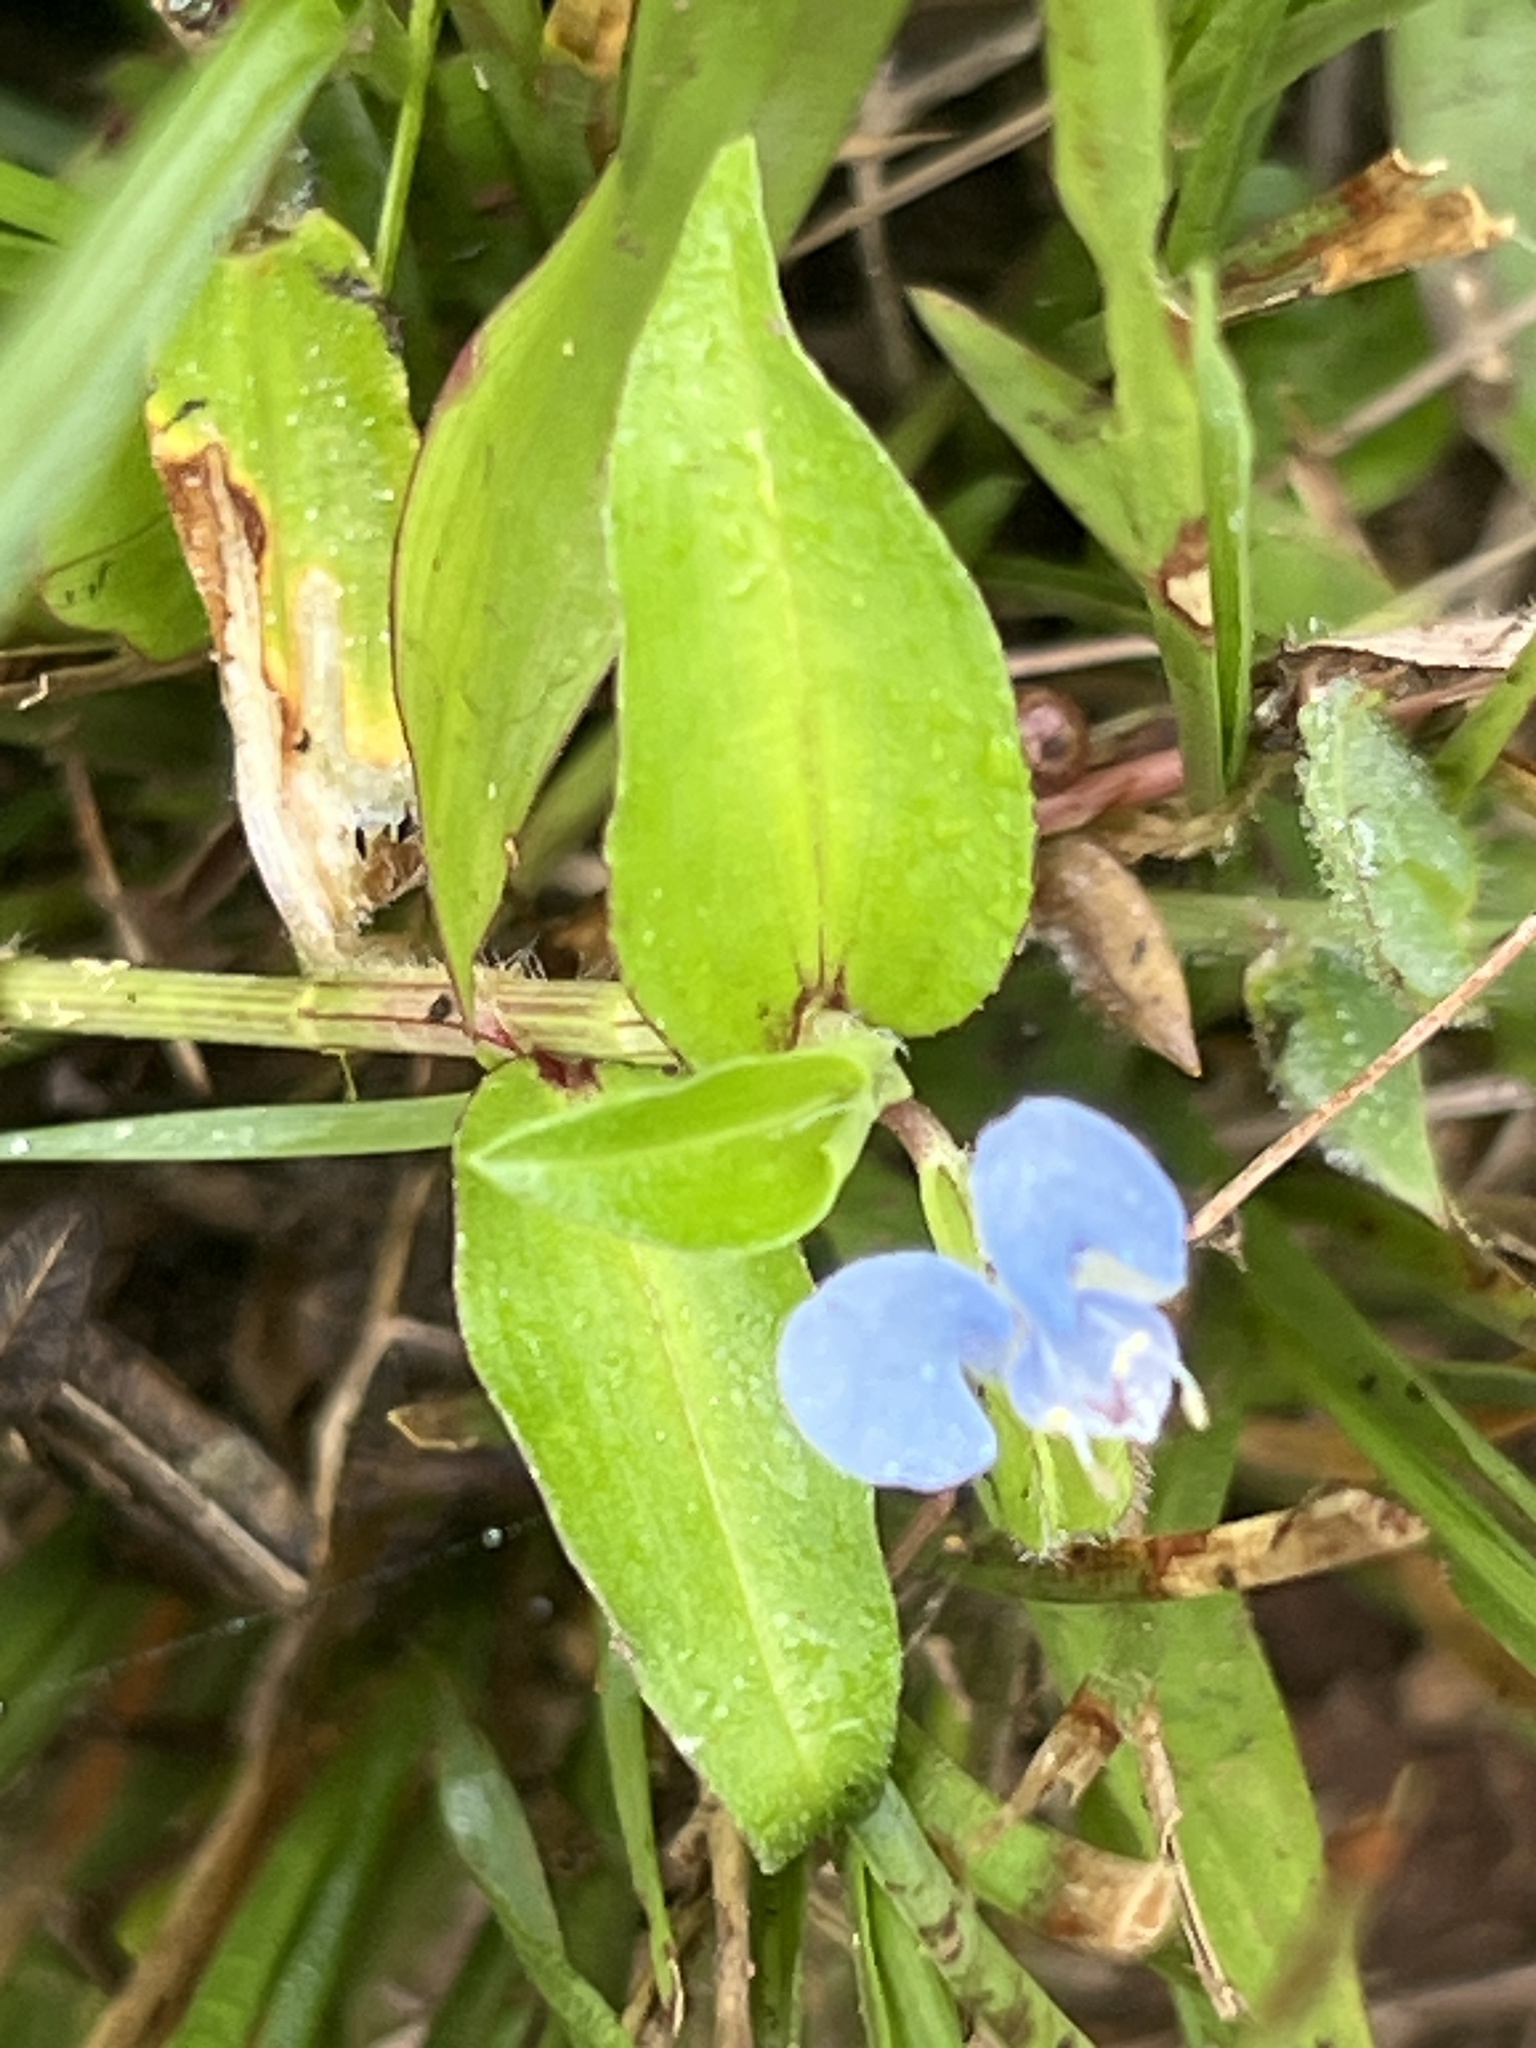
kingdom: Plantae
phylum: Tracheophyta
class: Liliopsida
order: Commelinales
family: Commelinaceae
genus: Commelina
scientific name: Commelina diffusa
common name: Climbing dayflower
